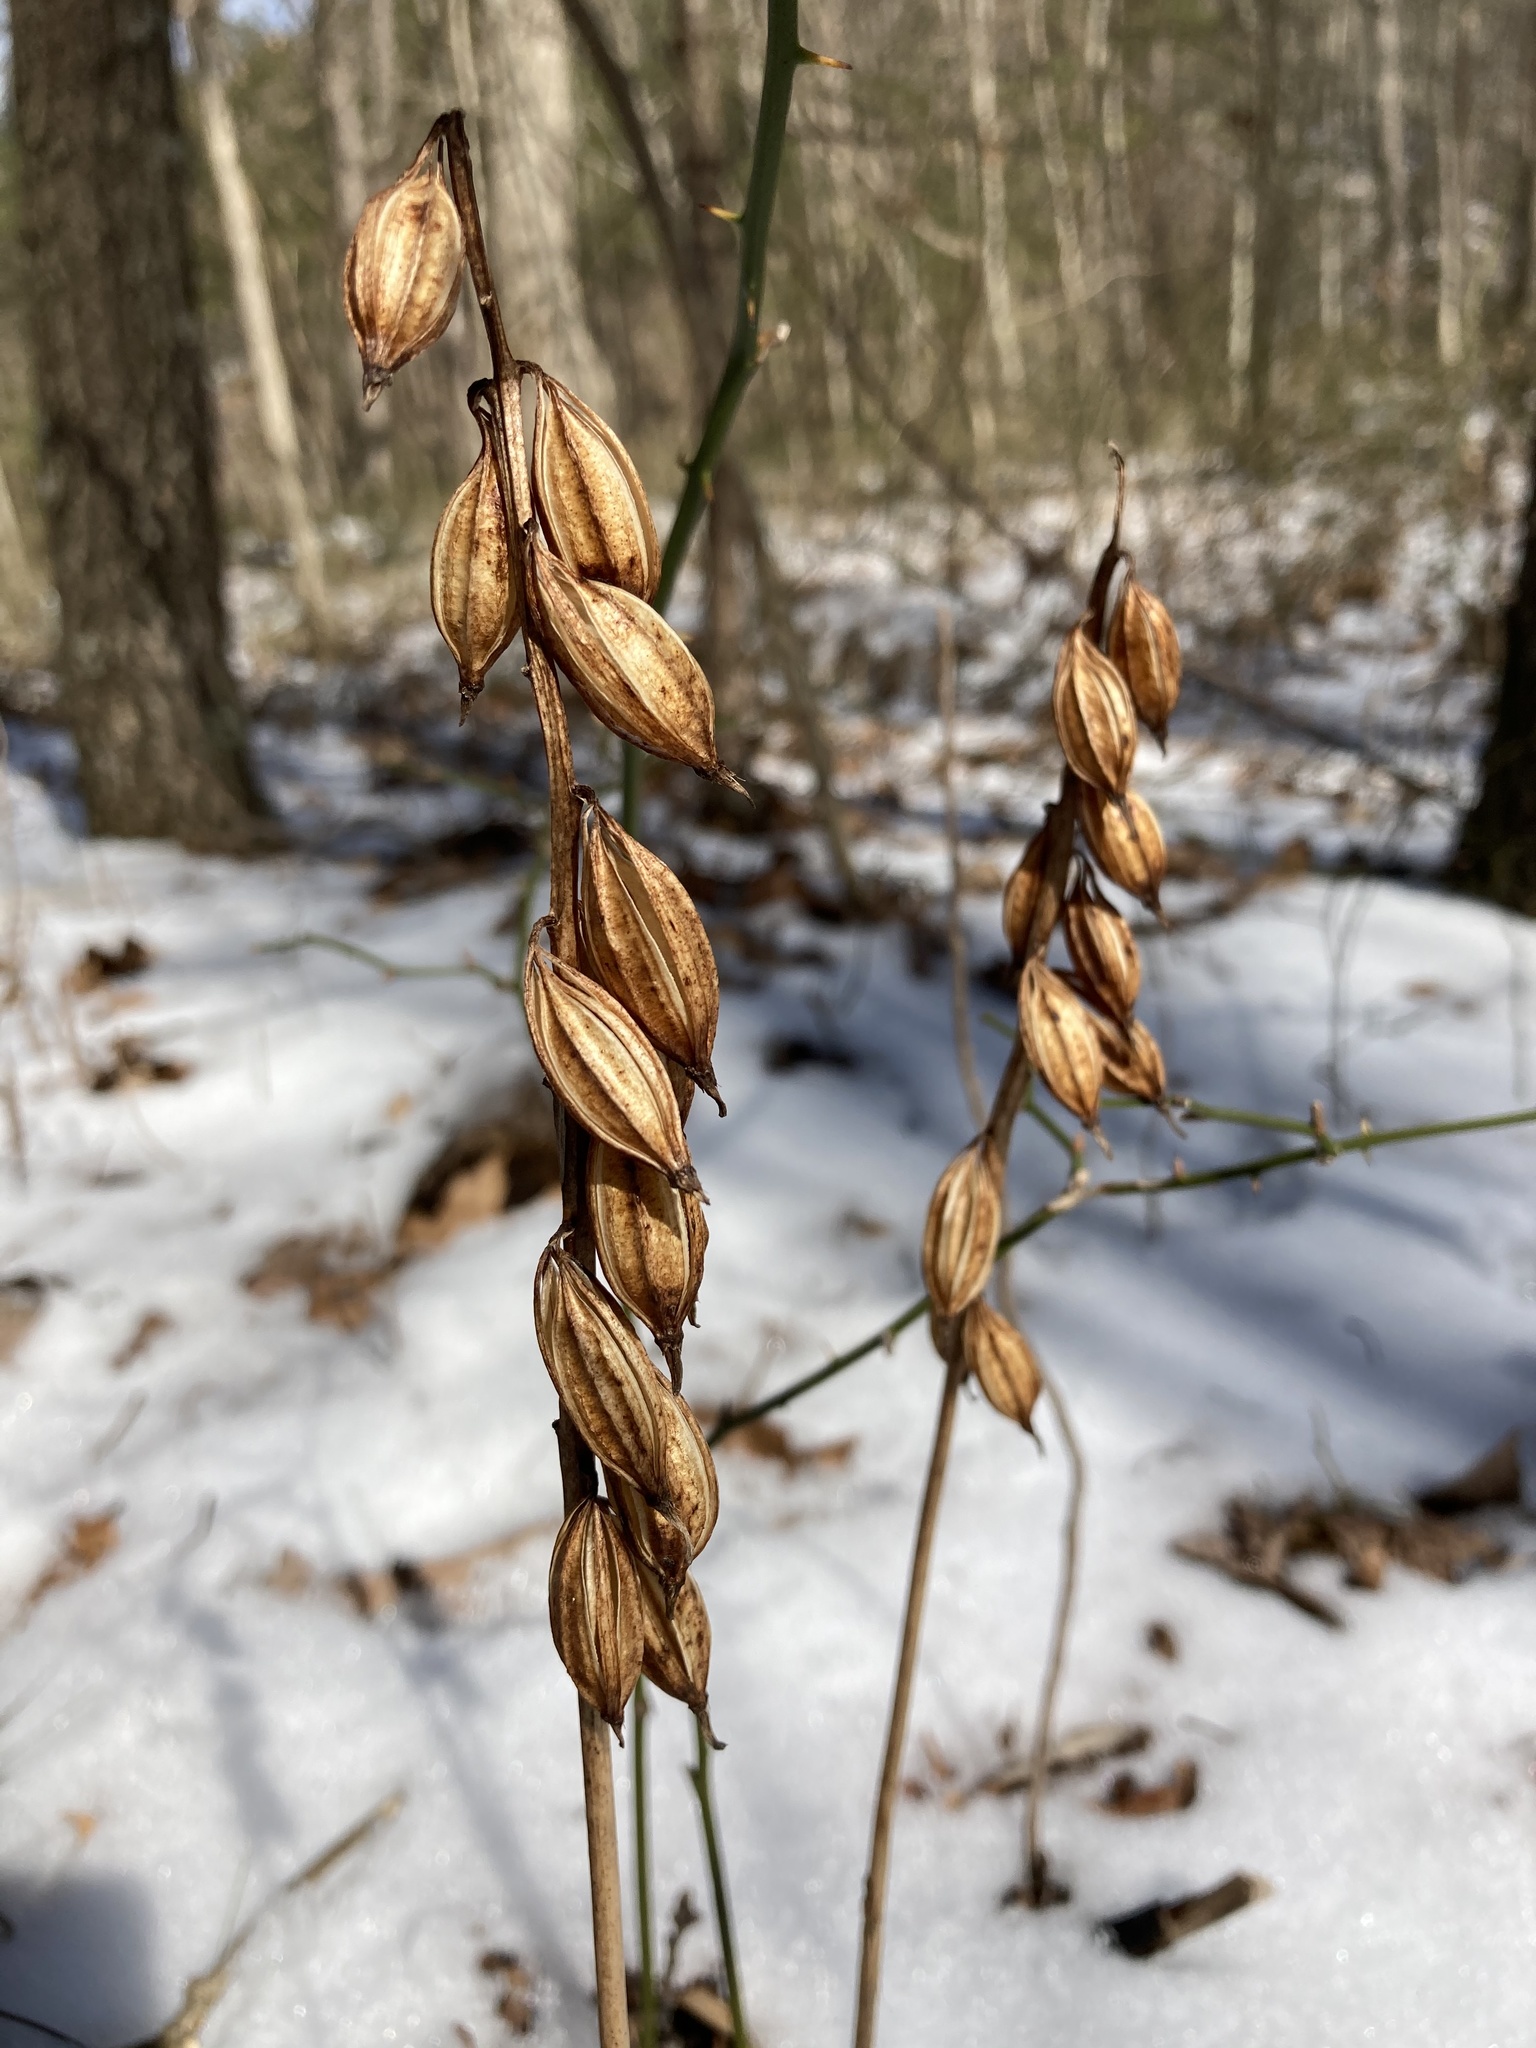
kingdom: Plantae
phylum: Tracheophyta
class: Liliopsida
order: Asparagales
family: Orchidaceae
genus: Aplectrum
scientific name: Aplectrum hyemale
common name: Adam-and-eve
